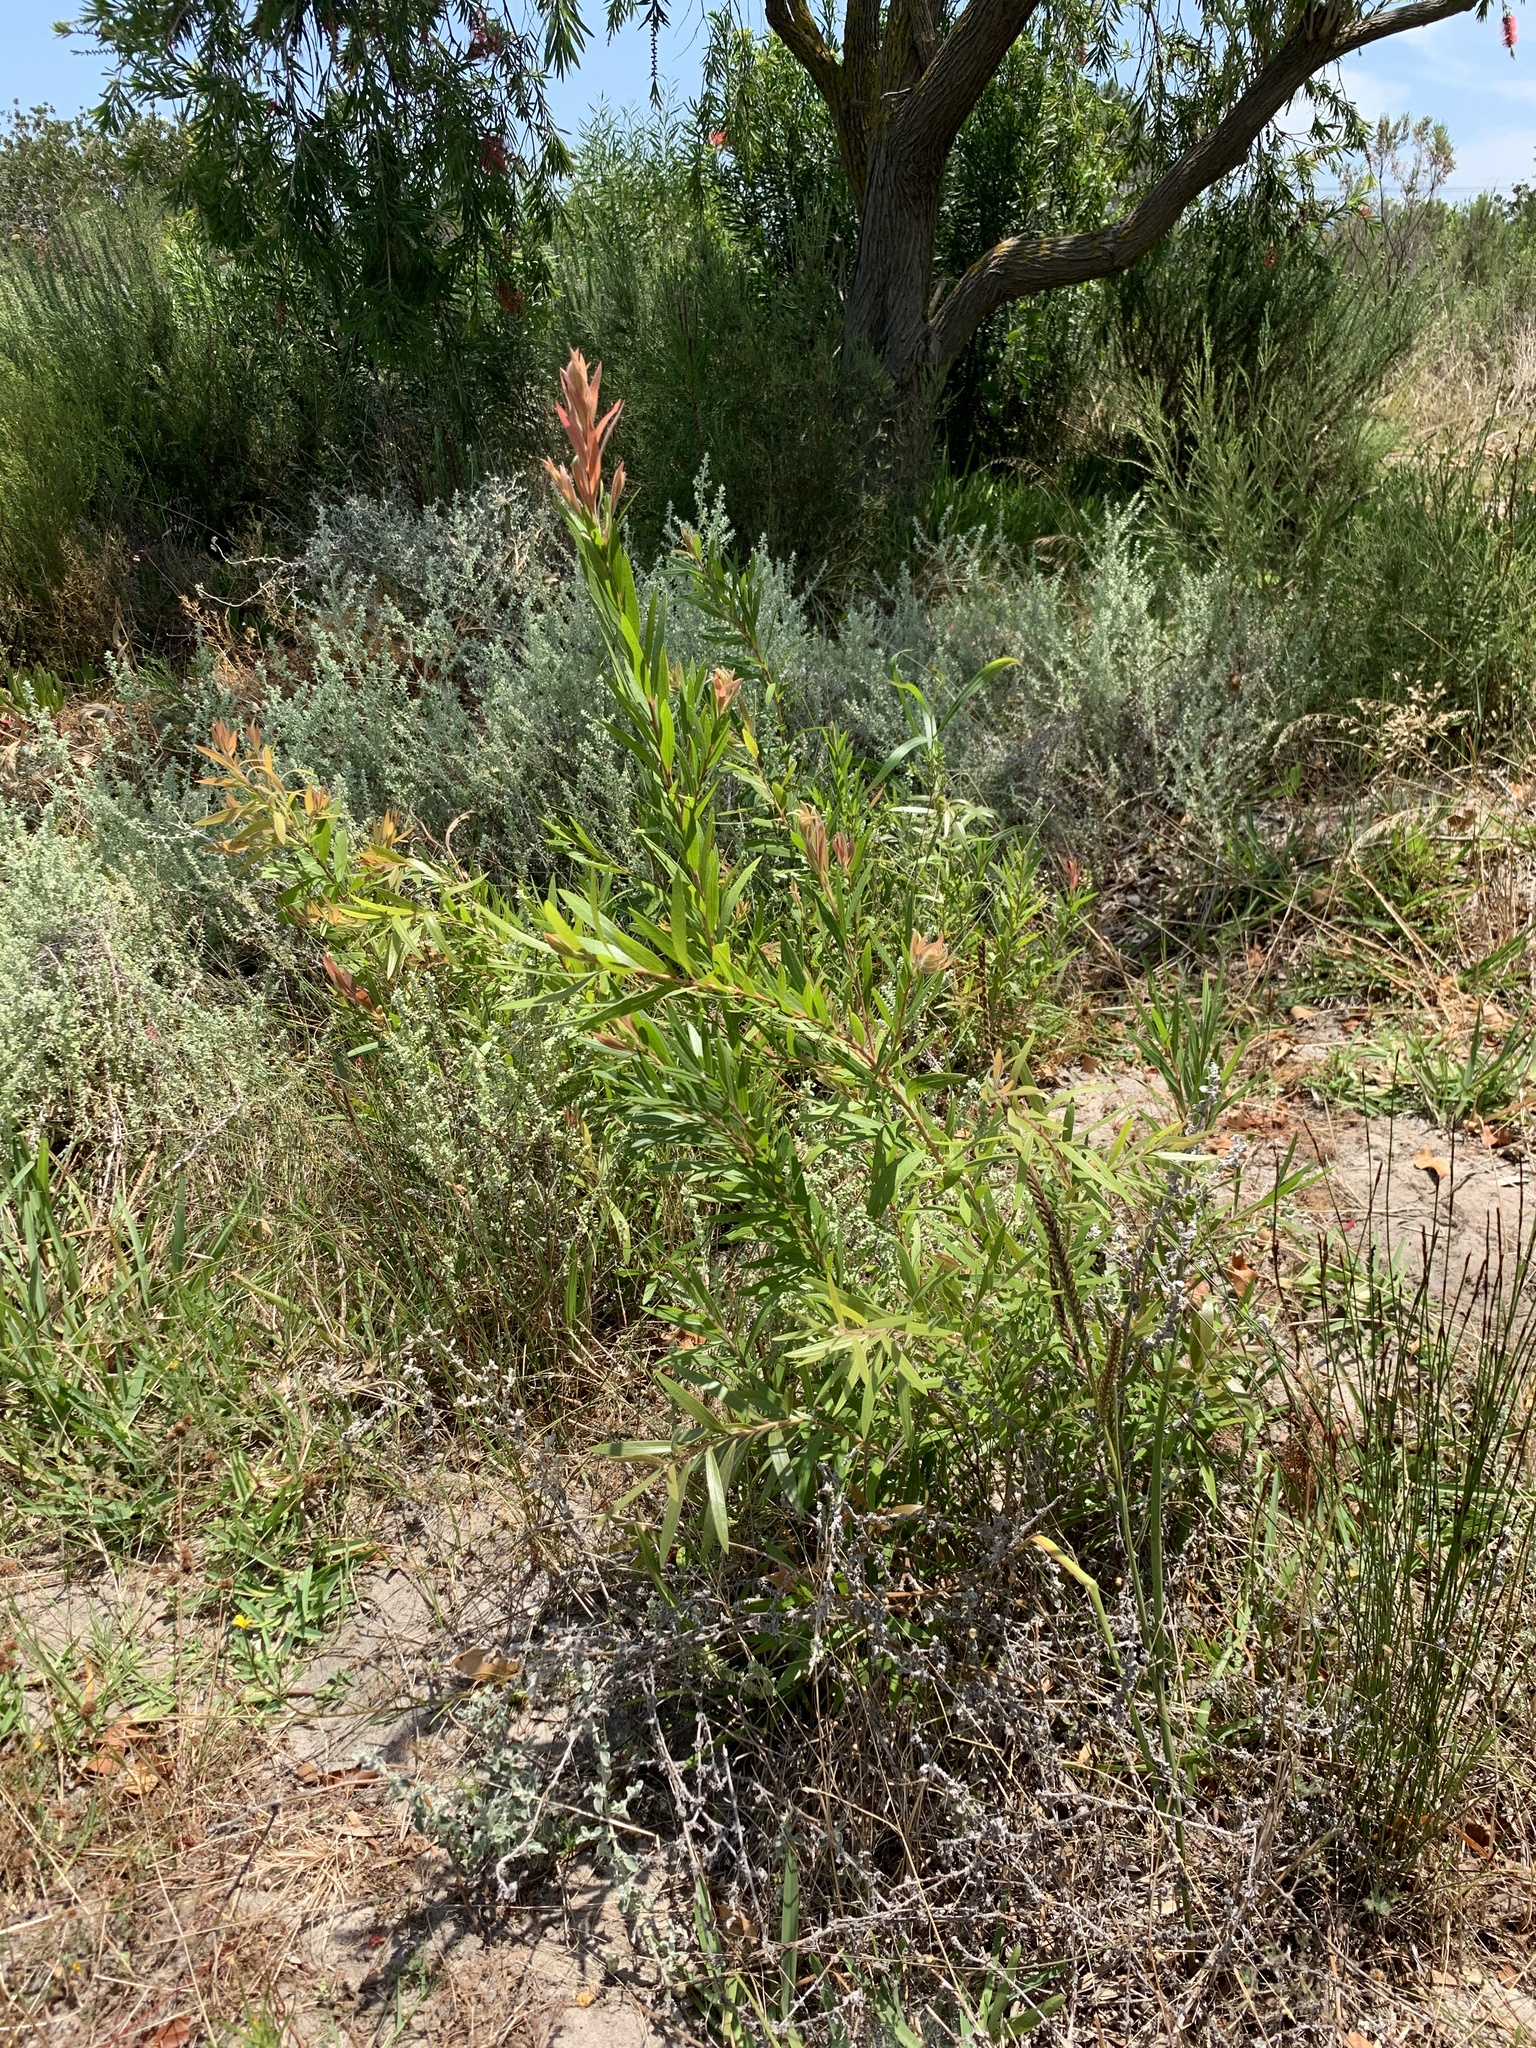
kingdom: Plantae
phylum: Tracheophyta
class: Magnoliopsida
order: Myrtales
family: Myrtaceae
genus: Callistemon
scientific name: Callistemon viminalis
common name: Drooping bottlebrush
